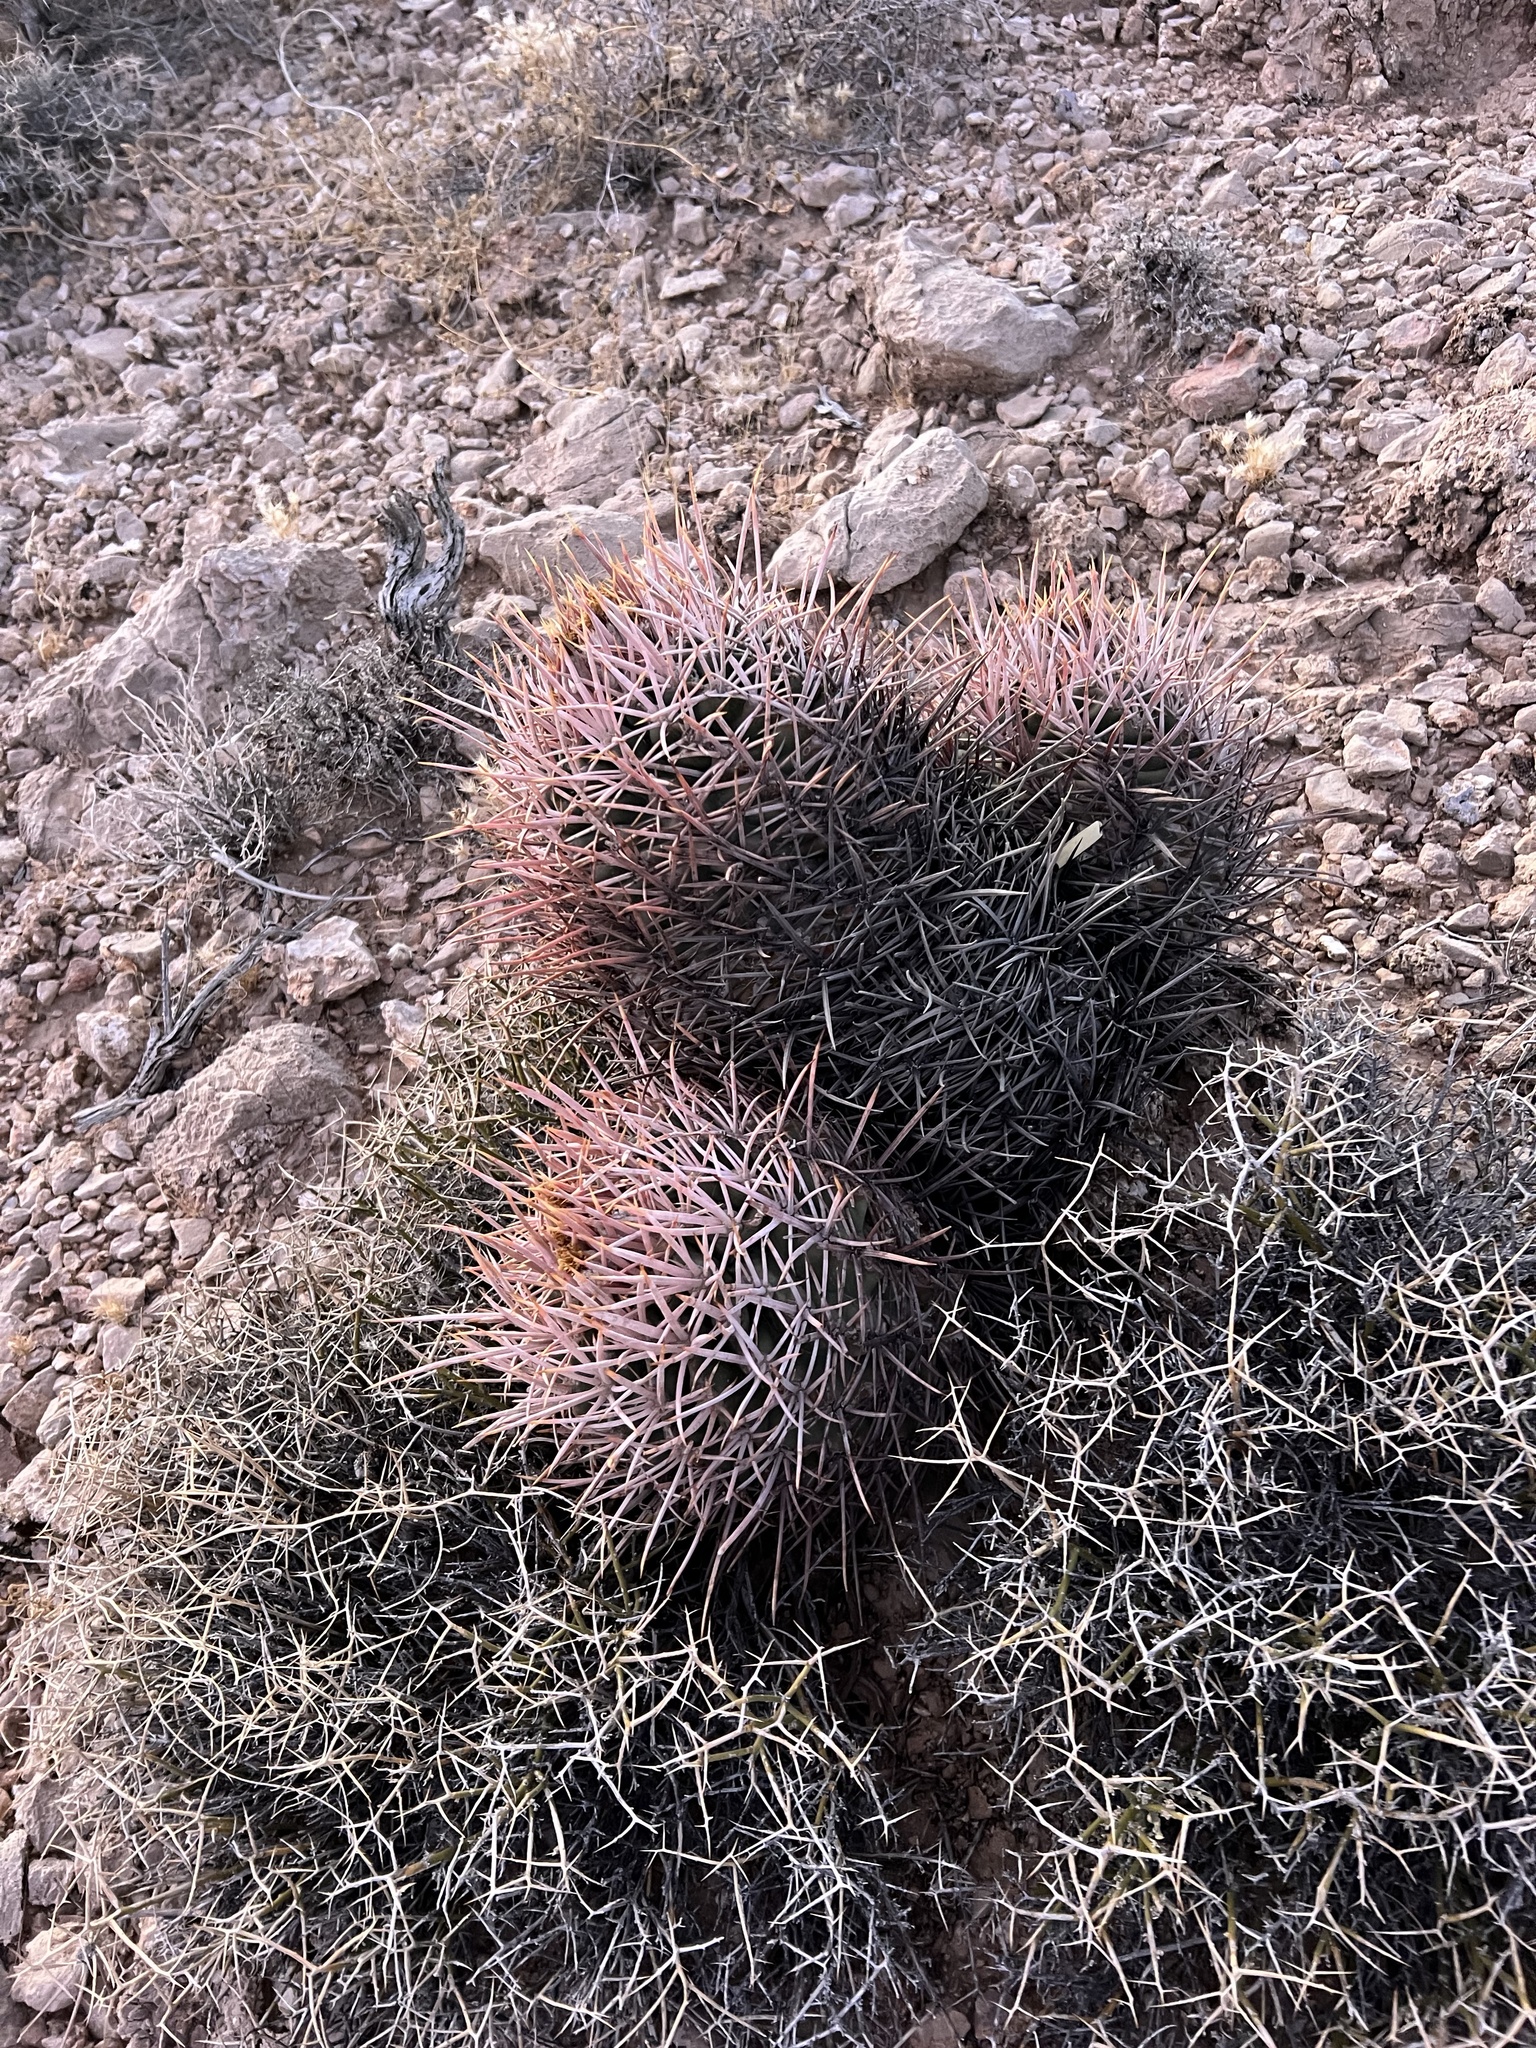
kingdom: Plantae
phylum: Tracheophyta
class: Magnoliopsida
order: Caryophyllales
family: Cactaceae
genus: Echinocactus
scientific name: Echinocactus polycephalus
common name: Cottontop cactus
